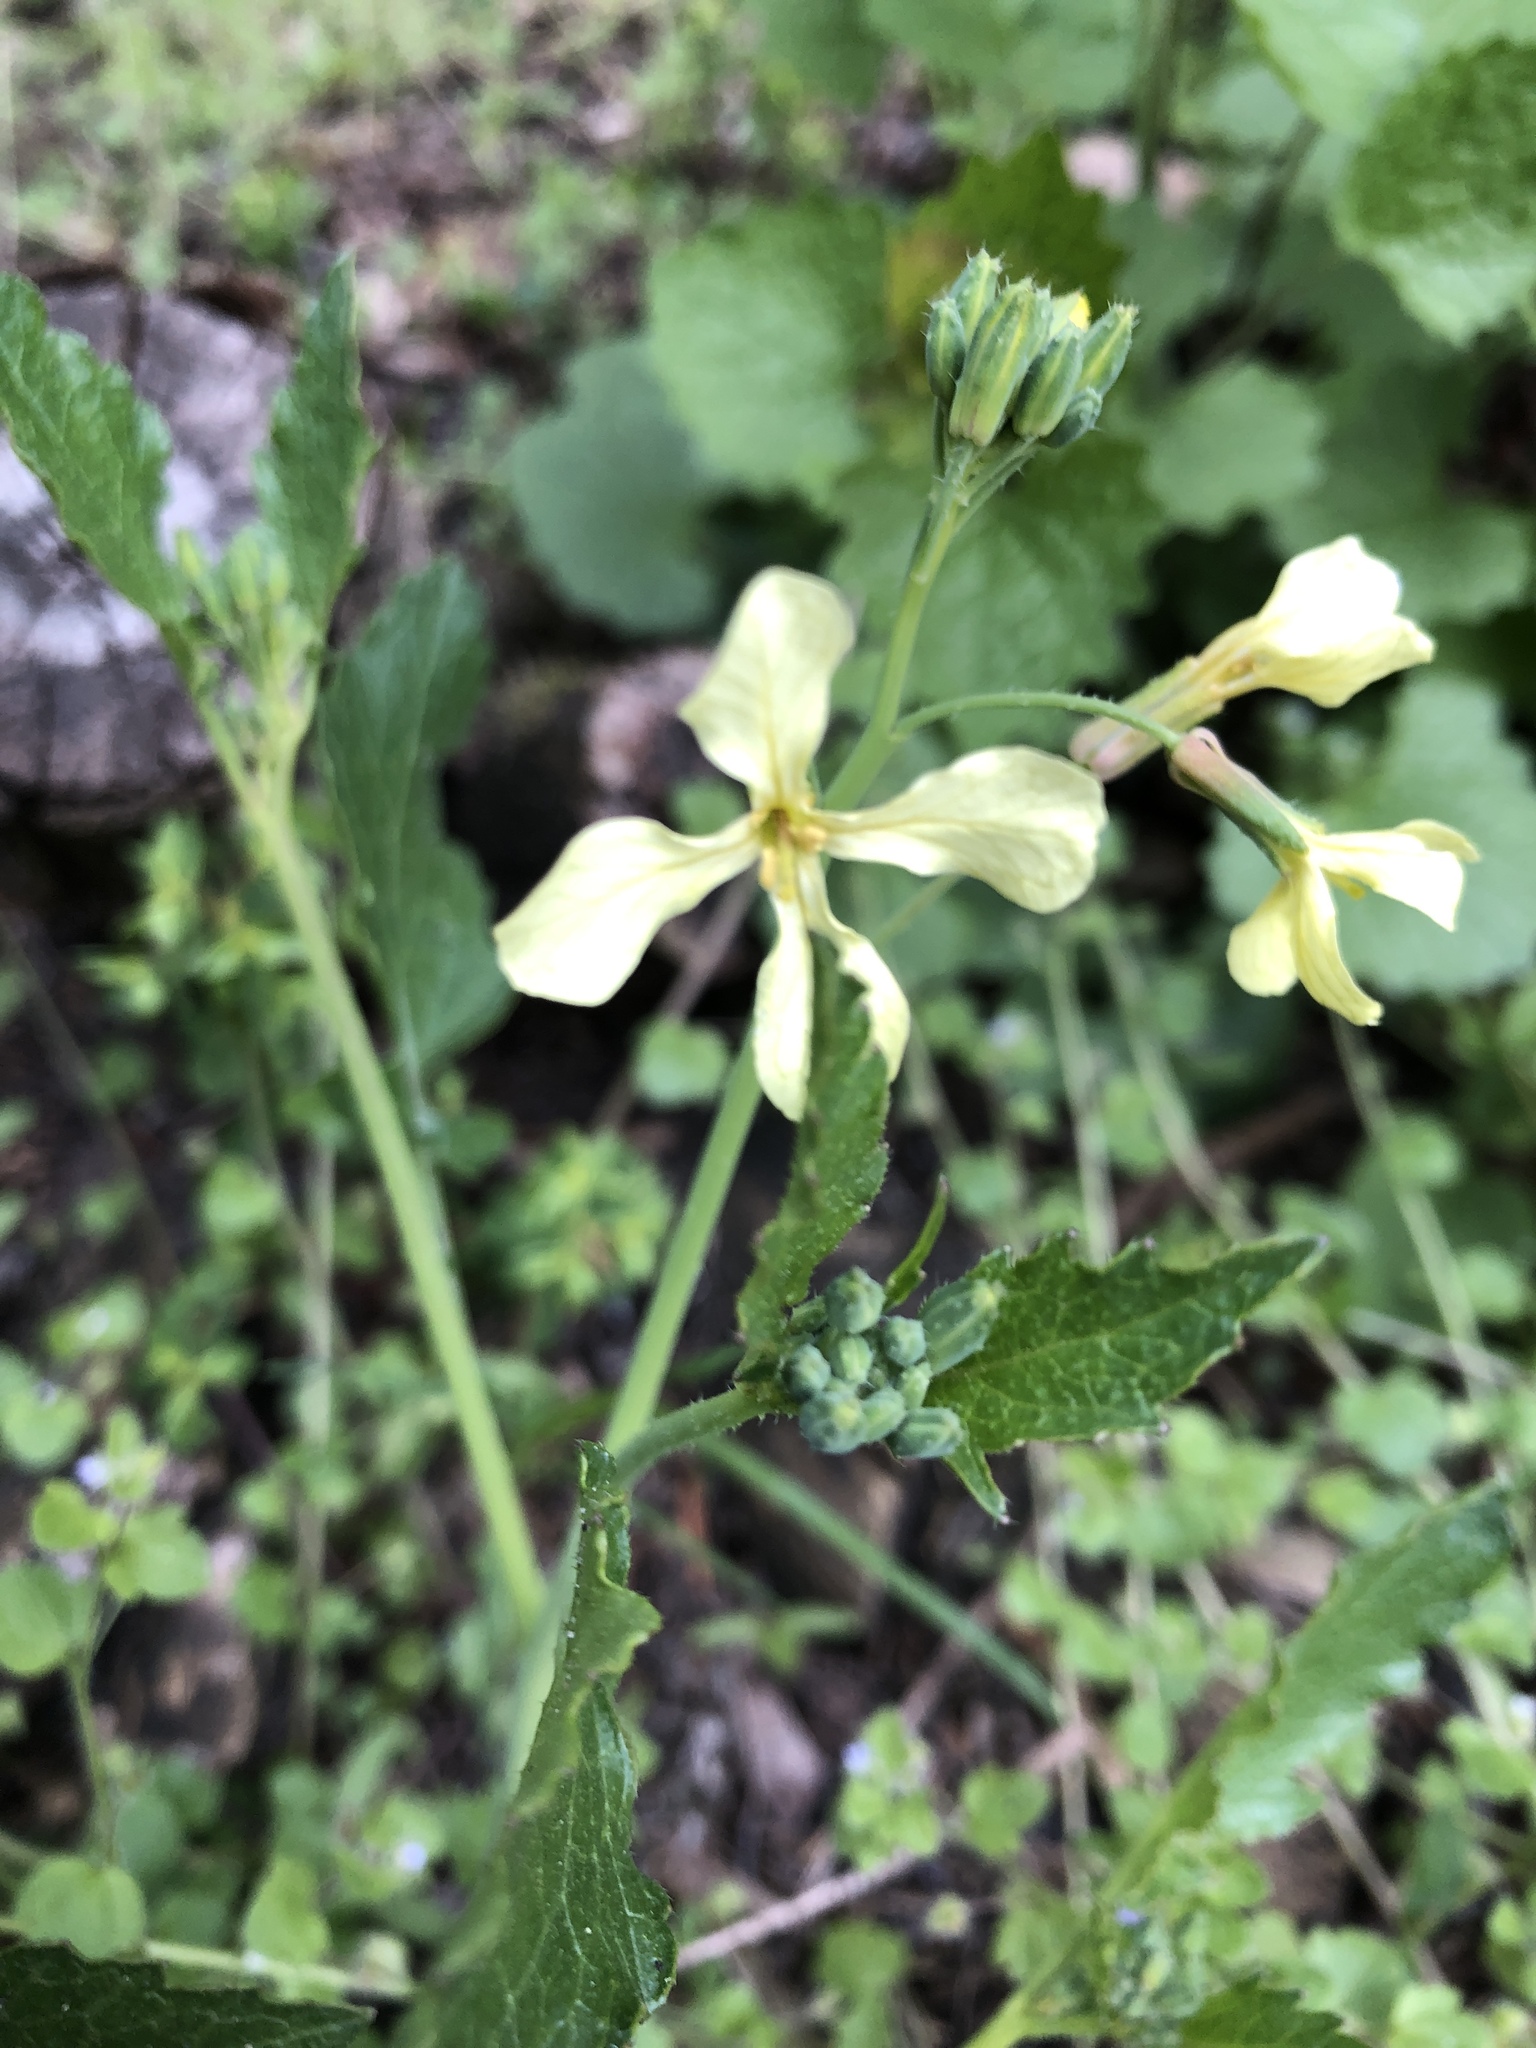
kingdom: Plantae
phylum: Tracheophyta
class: Magnoliopsida
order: Brassicales
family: Brassicaceae
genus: Raphanus
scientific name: Raphanus raphanistrum
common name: Wild radish
